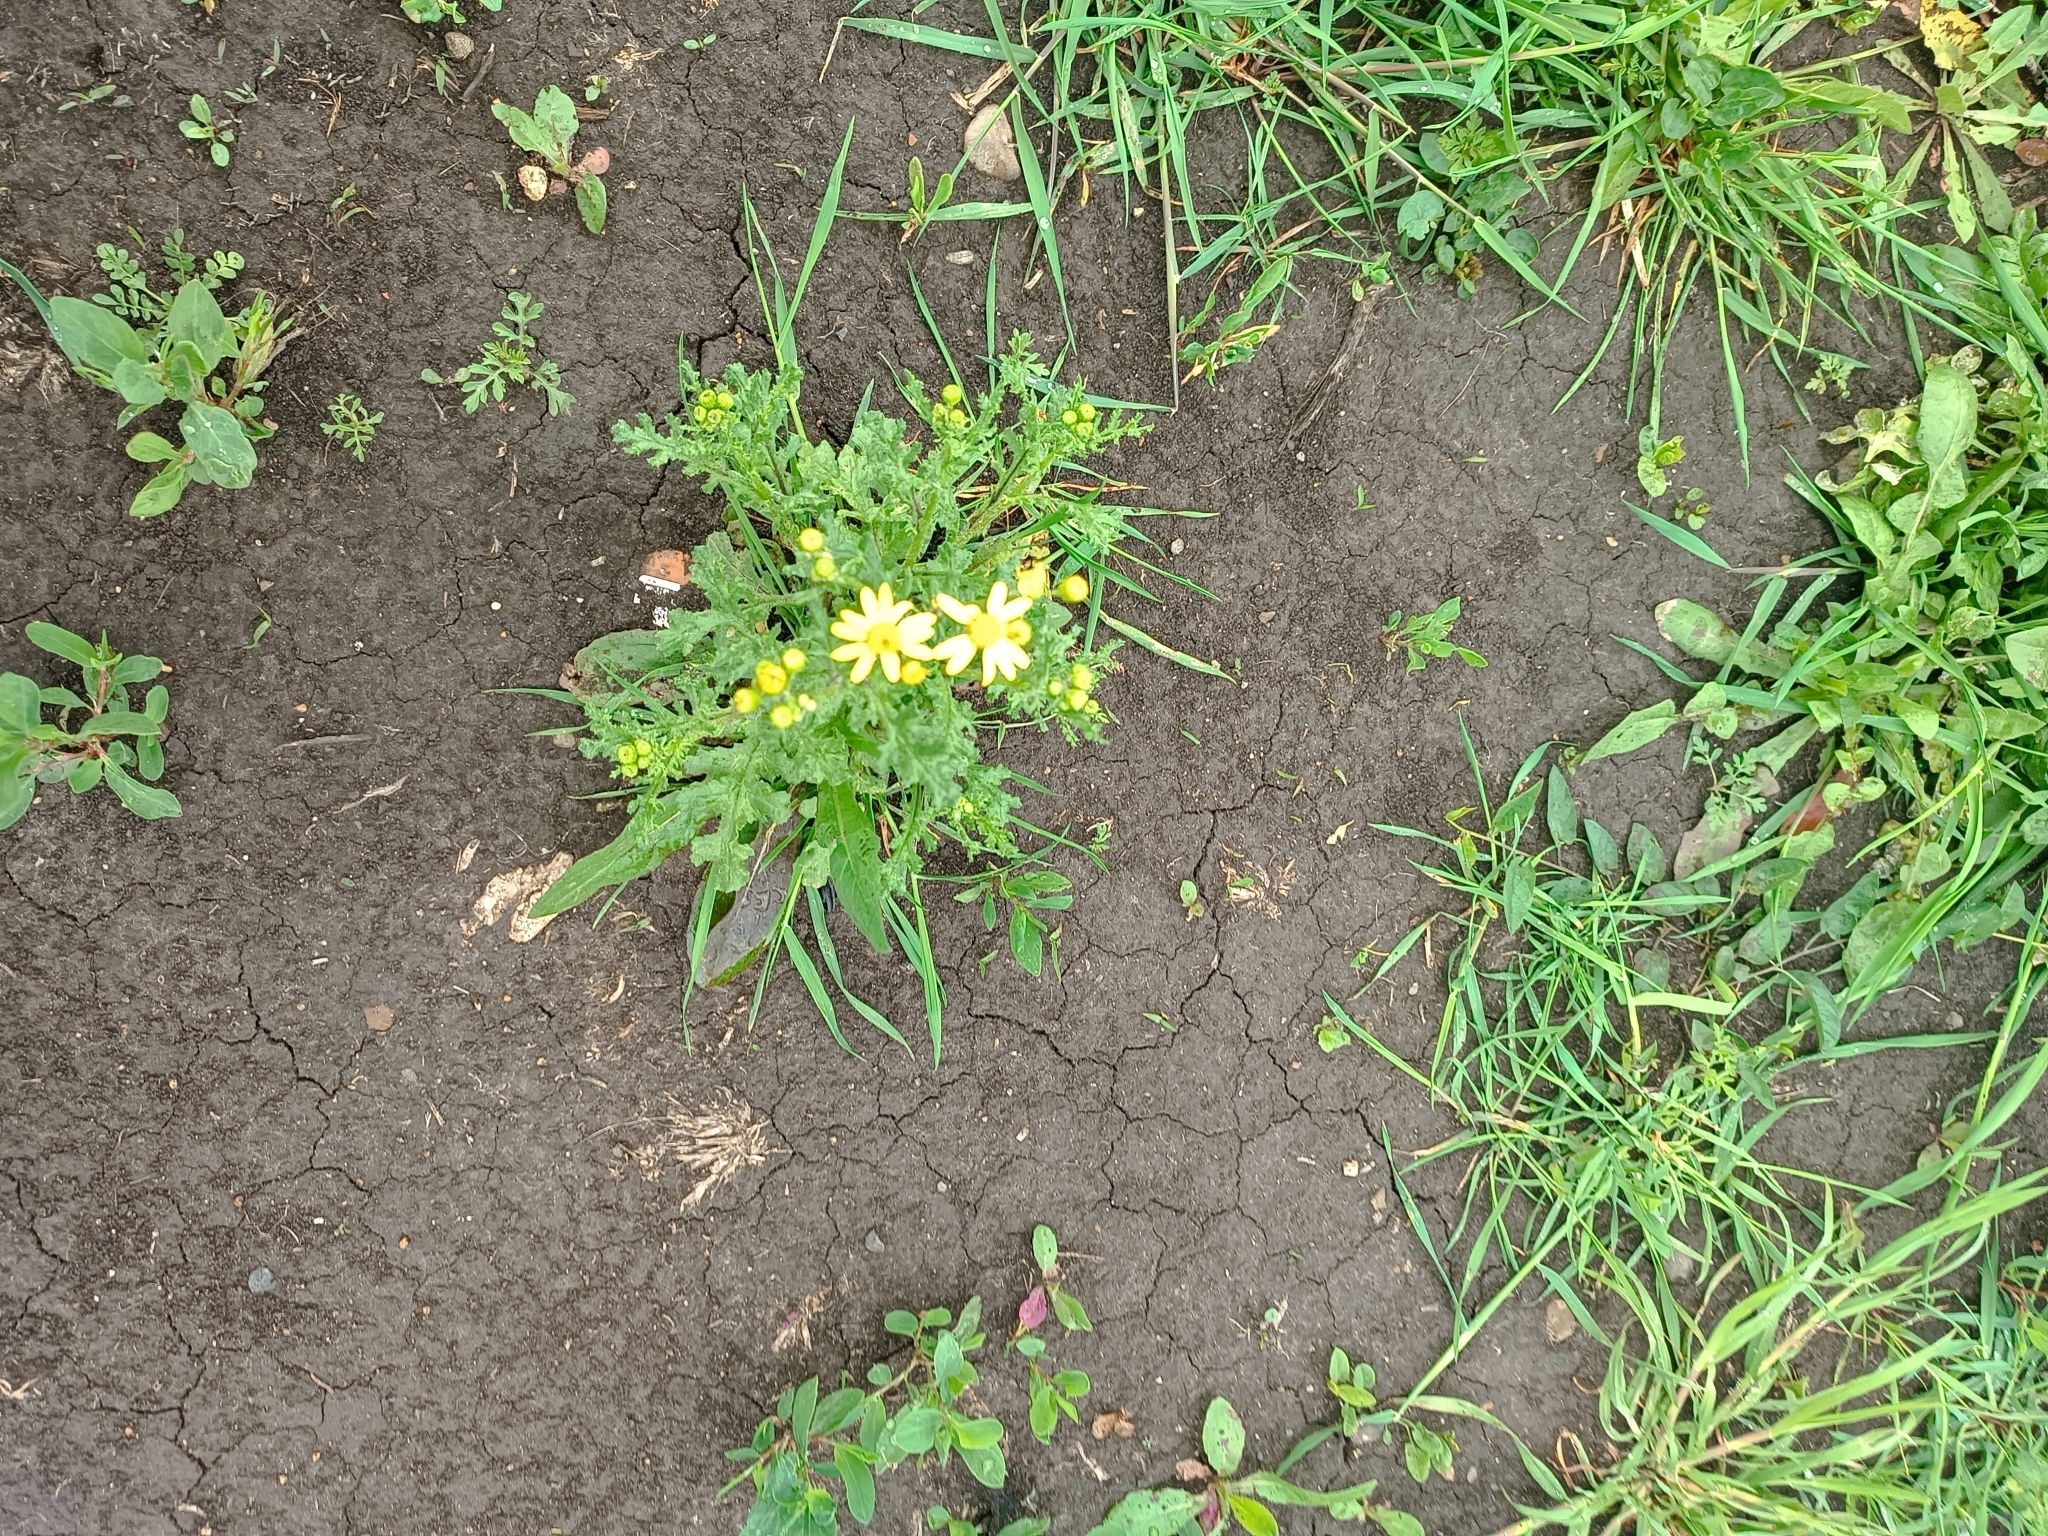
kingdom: Plantae
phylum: Tracheophyta
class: Magnoliopsida
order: Asterales
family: Asteraceae
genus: Senecio
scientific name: Senecio vernalis
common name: Eastern groundsel
